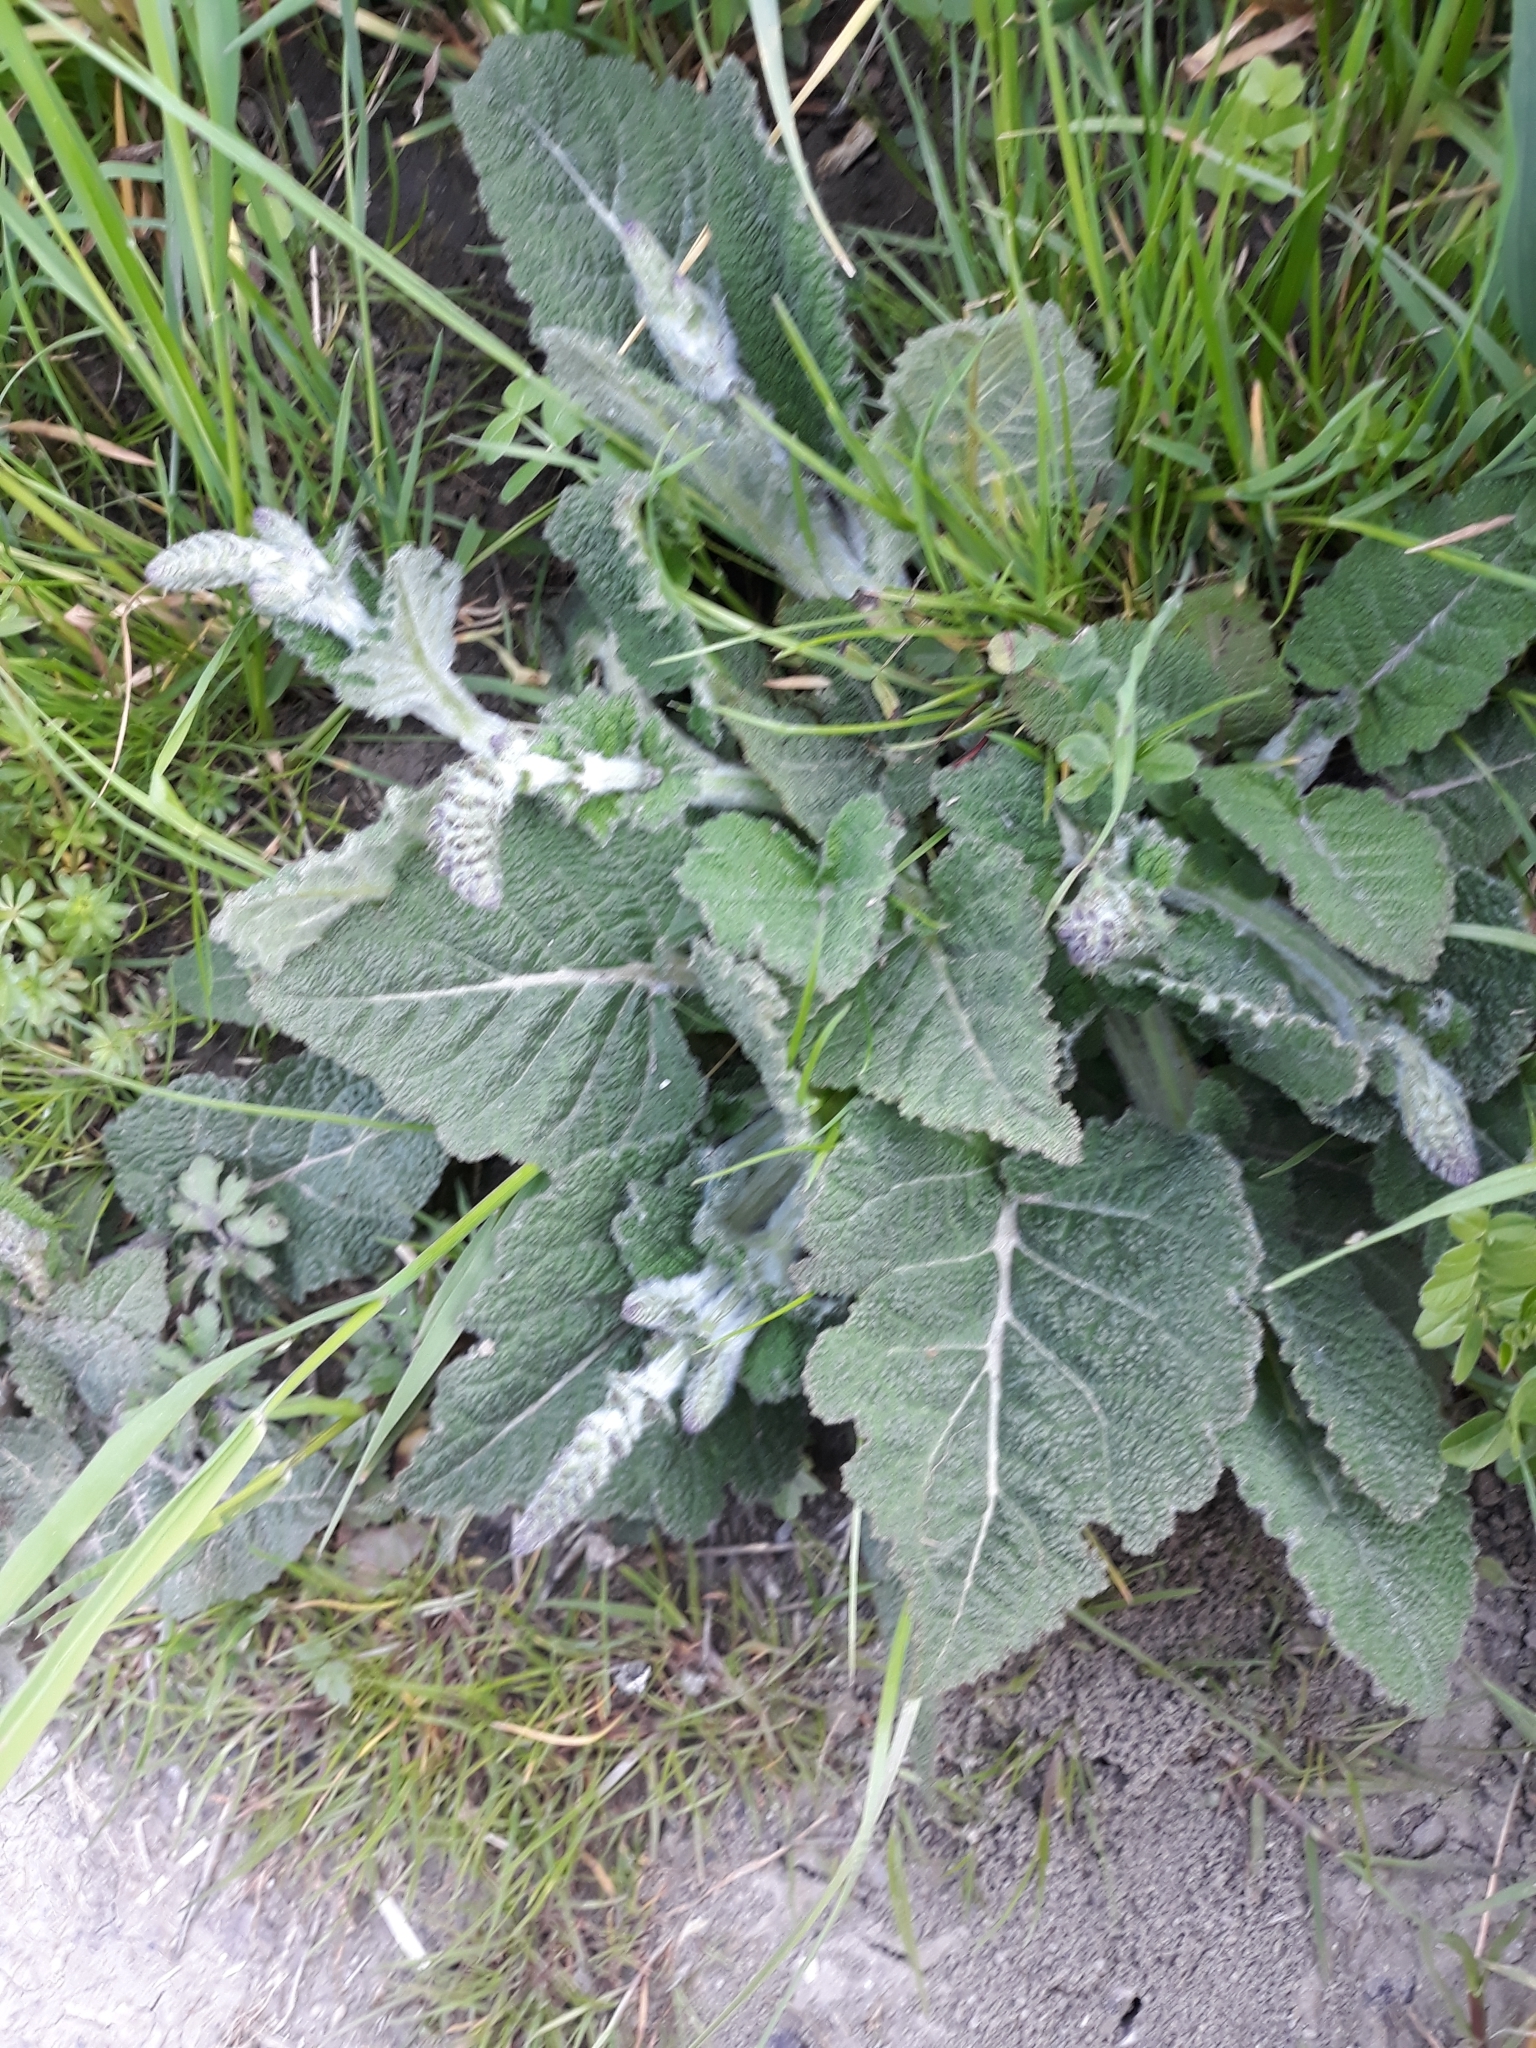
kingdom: Plantae
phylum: Tracheophyta
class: Magnoliopsida
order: Lamiales
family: Lamiaceae
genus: Salvia
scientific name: Salvia pratensis
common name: Meadow sage
